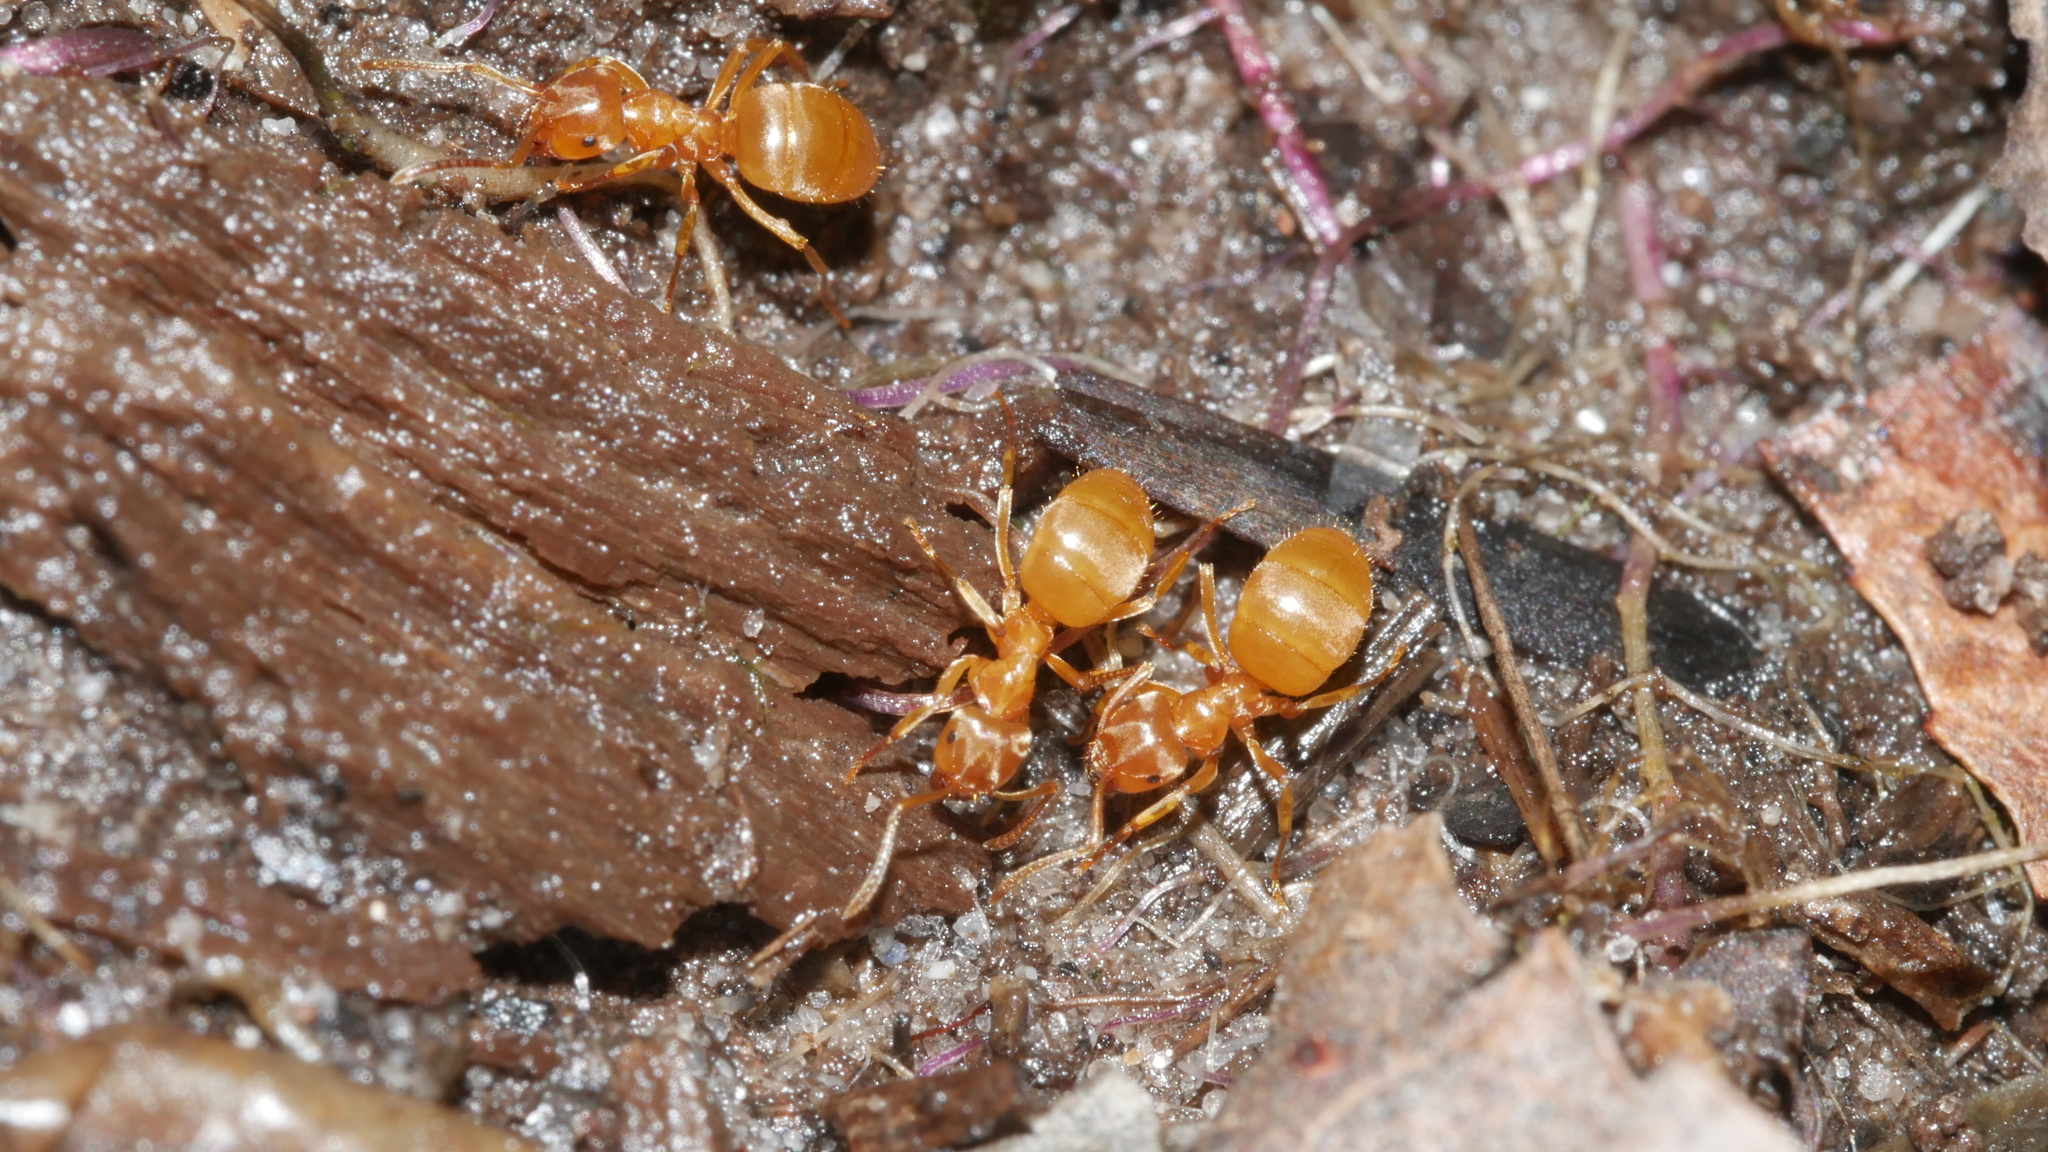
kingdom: Animalia
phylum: Arthropoda
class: Insecta
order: Hymenoptera
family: Formicidae
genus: Lasius
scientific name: Lasius aphidicola
